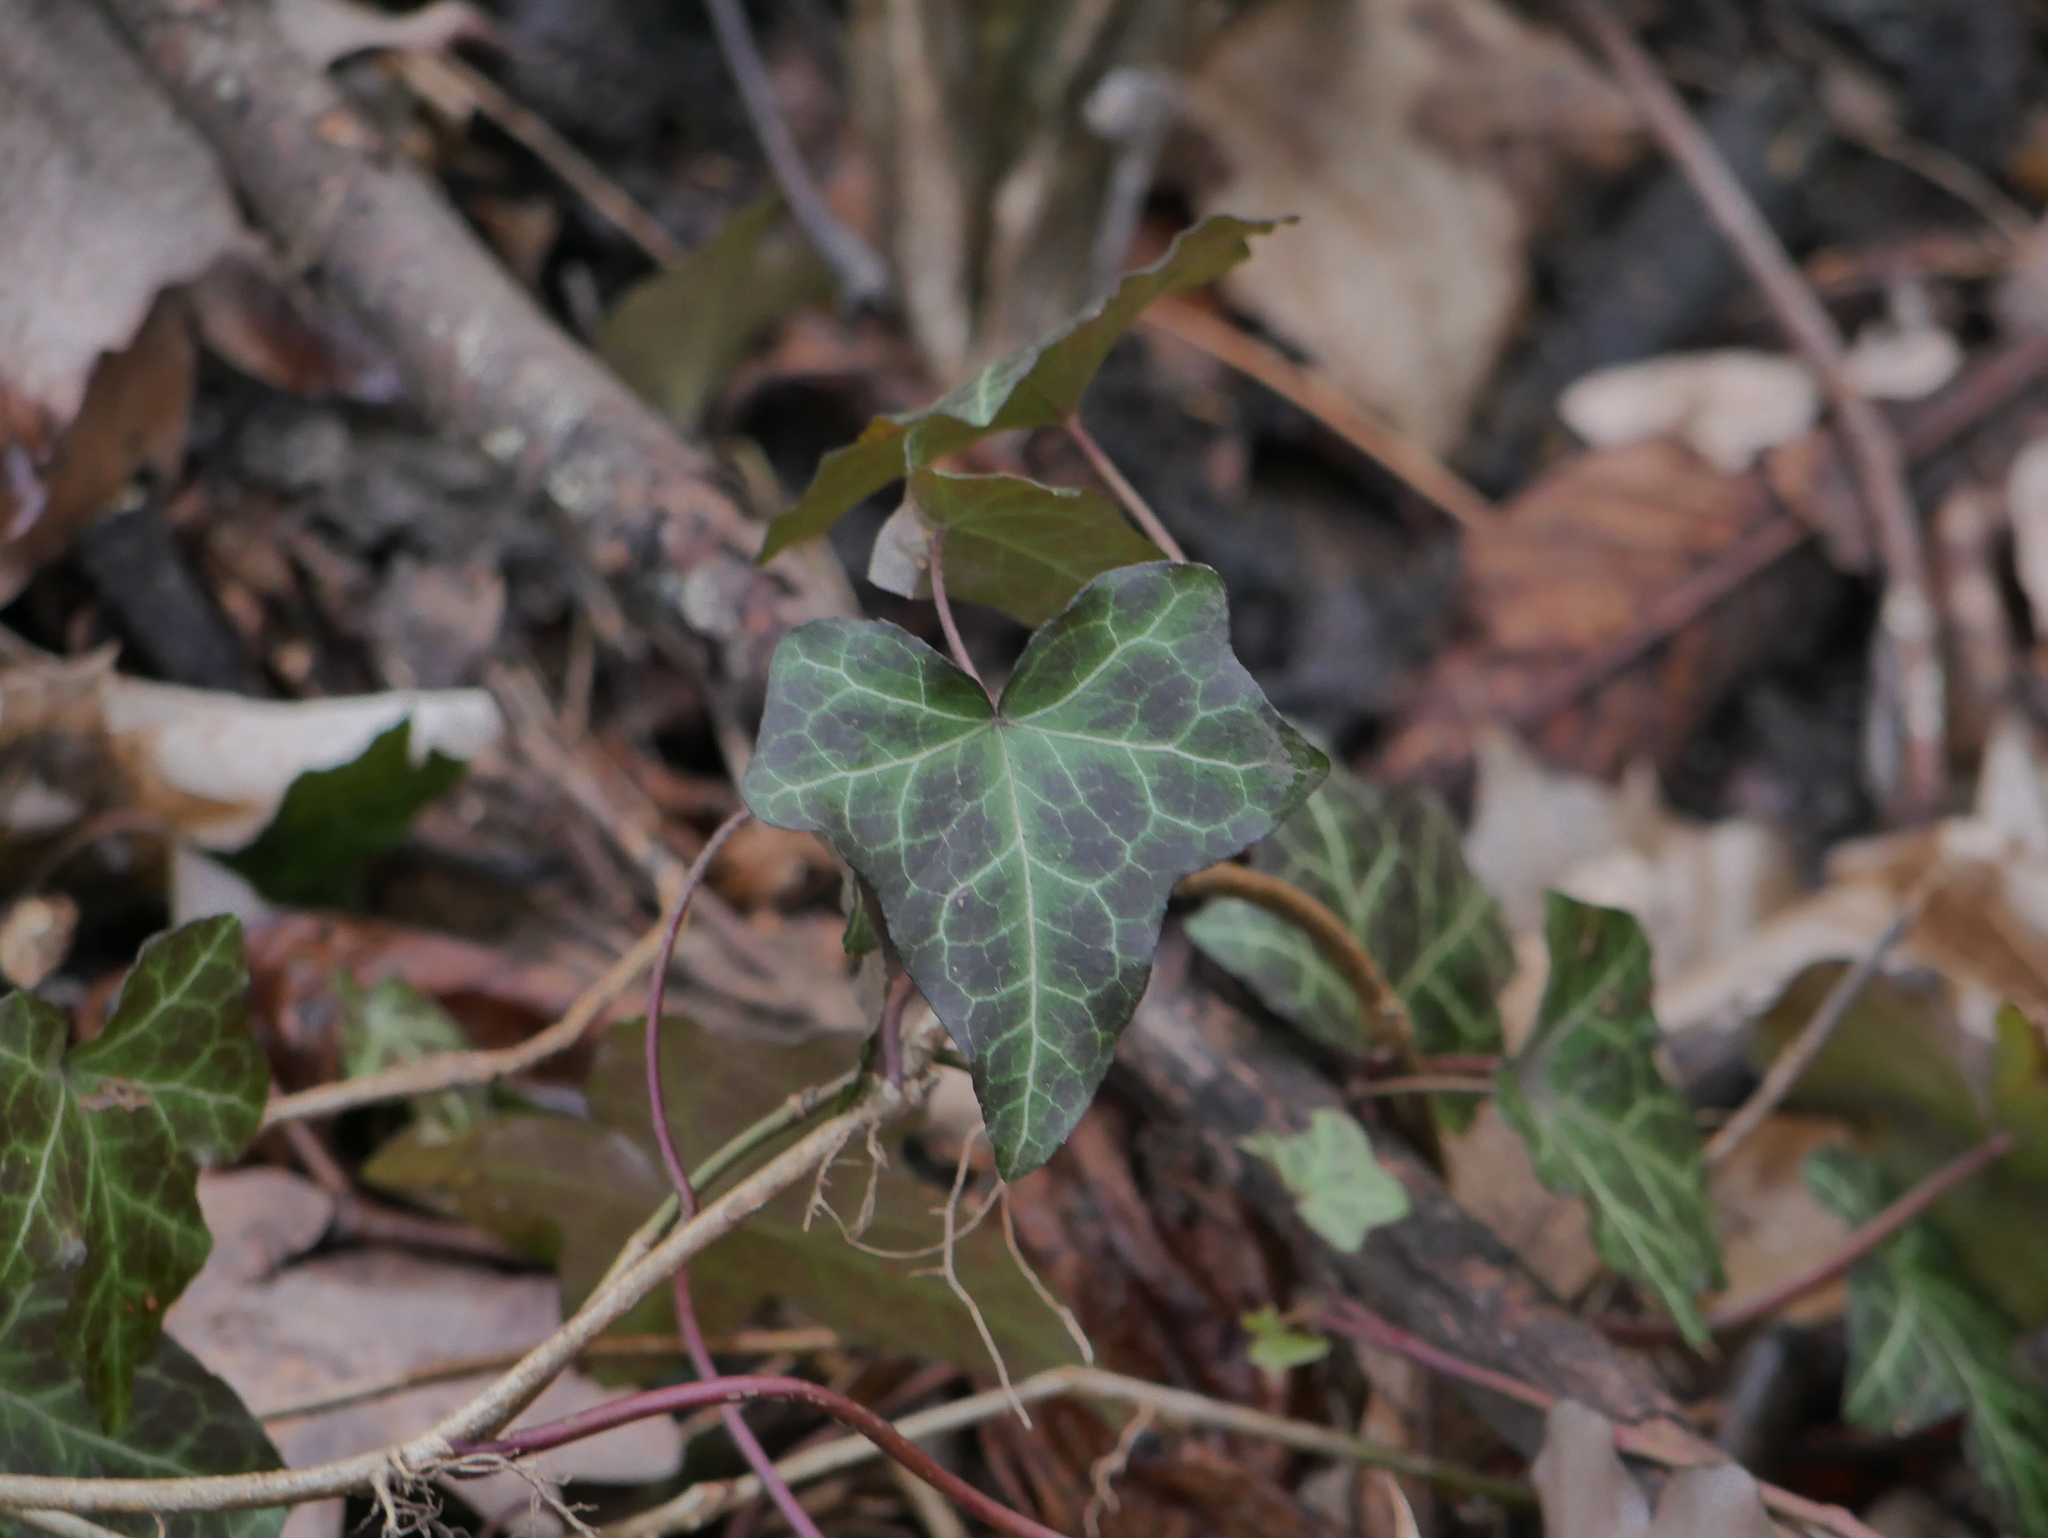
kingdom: Plantae
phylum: Tracheophyta
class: Magnoliopsida
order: Apiales
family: Araliaceae
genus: Hedera
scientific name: Hedera helix
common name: Ivy
